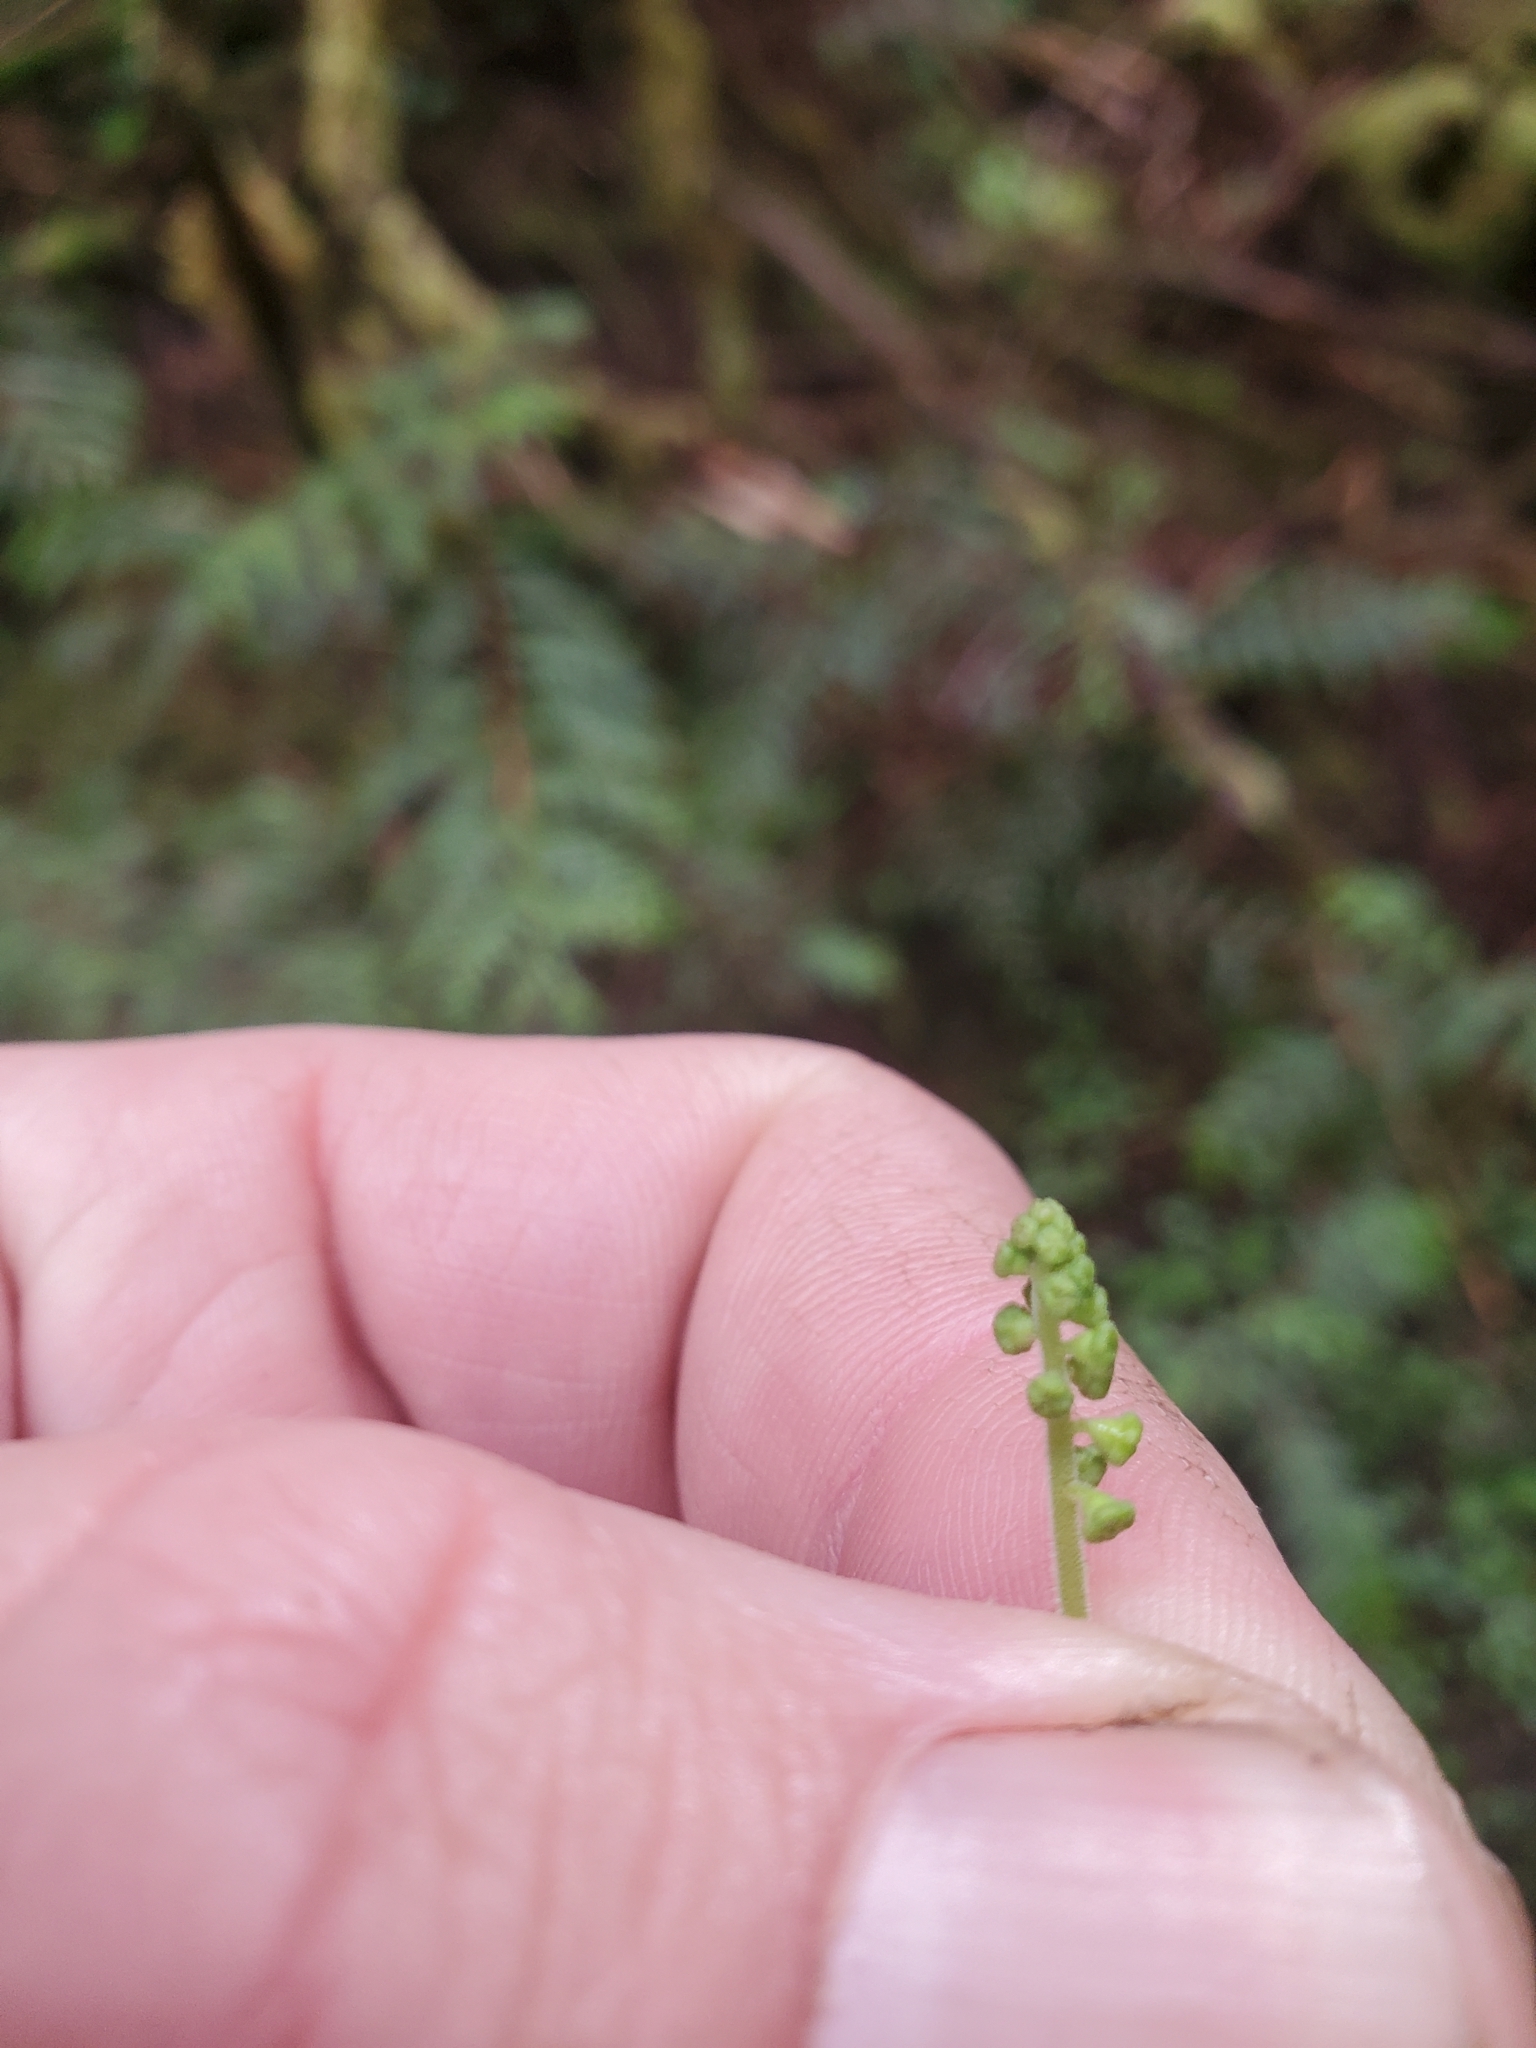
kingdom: Plantae
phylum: Tracheophyta
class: Magnoliopsida
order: Saxifragales
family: Saxifragaceae
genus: Brewerimitella
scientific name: Brewerimitella ovalis
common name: Coastal bishop's-cap
